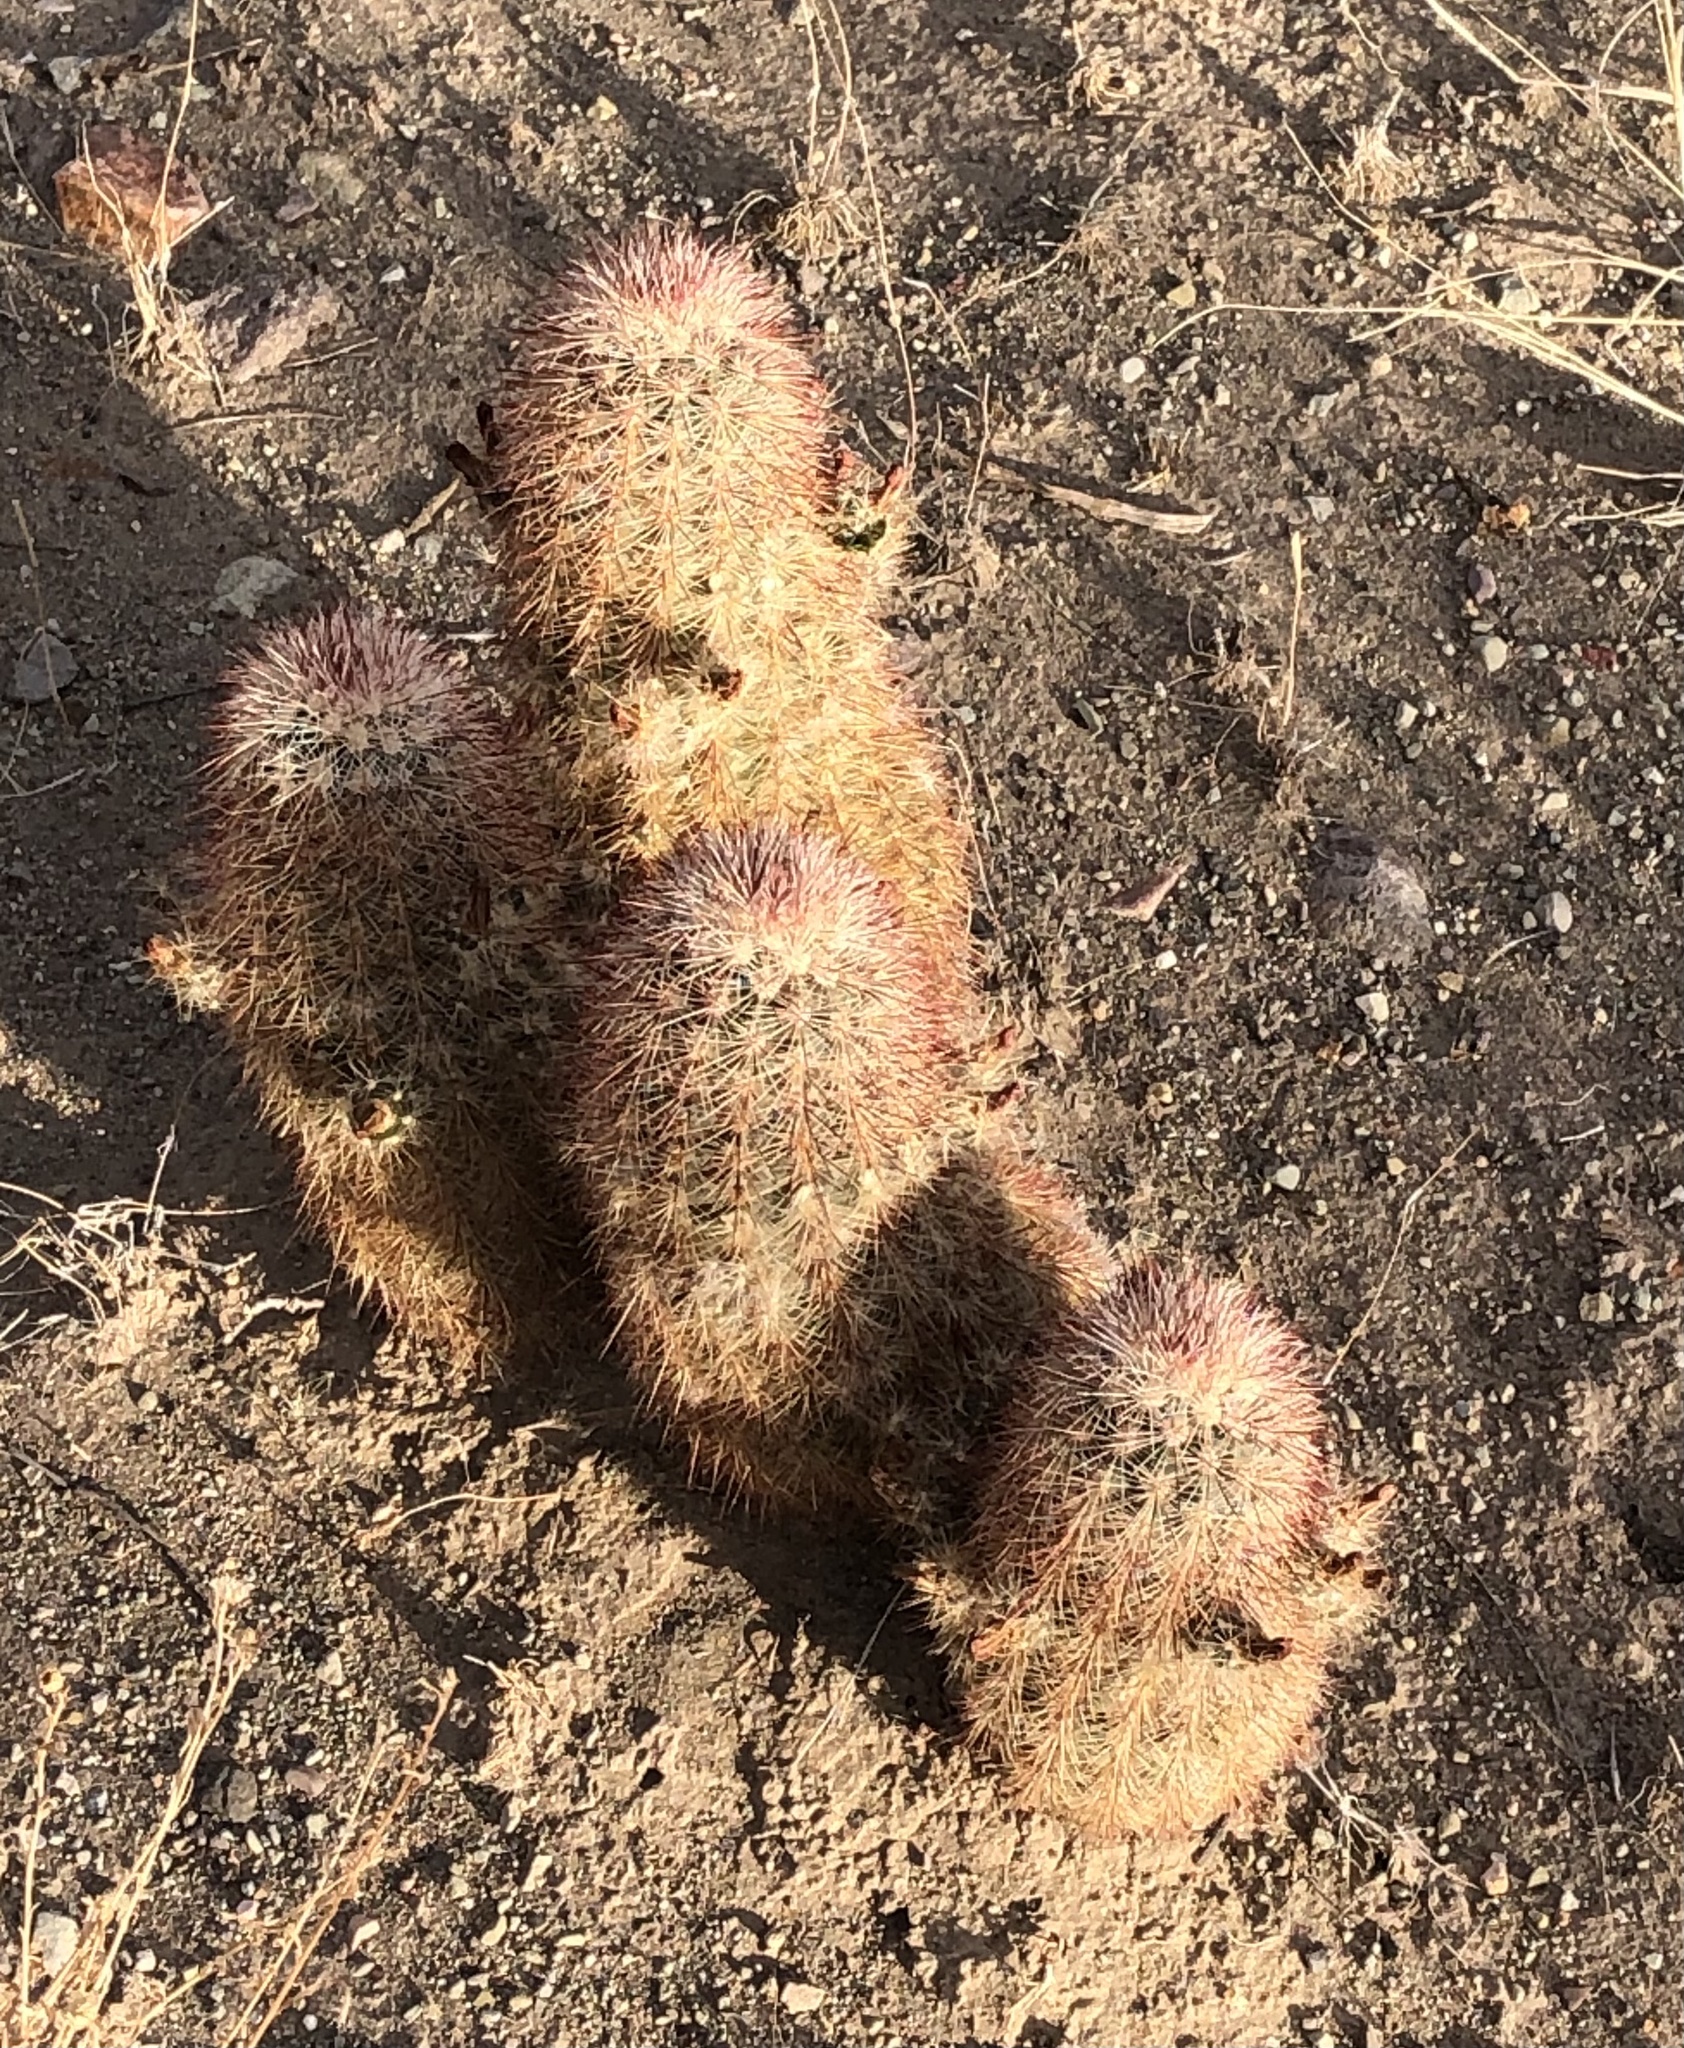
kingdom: Plantae
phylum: Tracheophyta
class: Magnoliopsida
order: Caryophyllales
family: Cactaceae
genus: Echinocereus
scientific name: Echinocereus russanthus
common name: Brownspine hedgehog cactus
